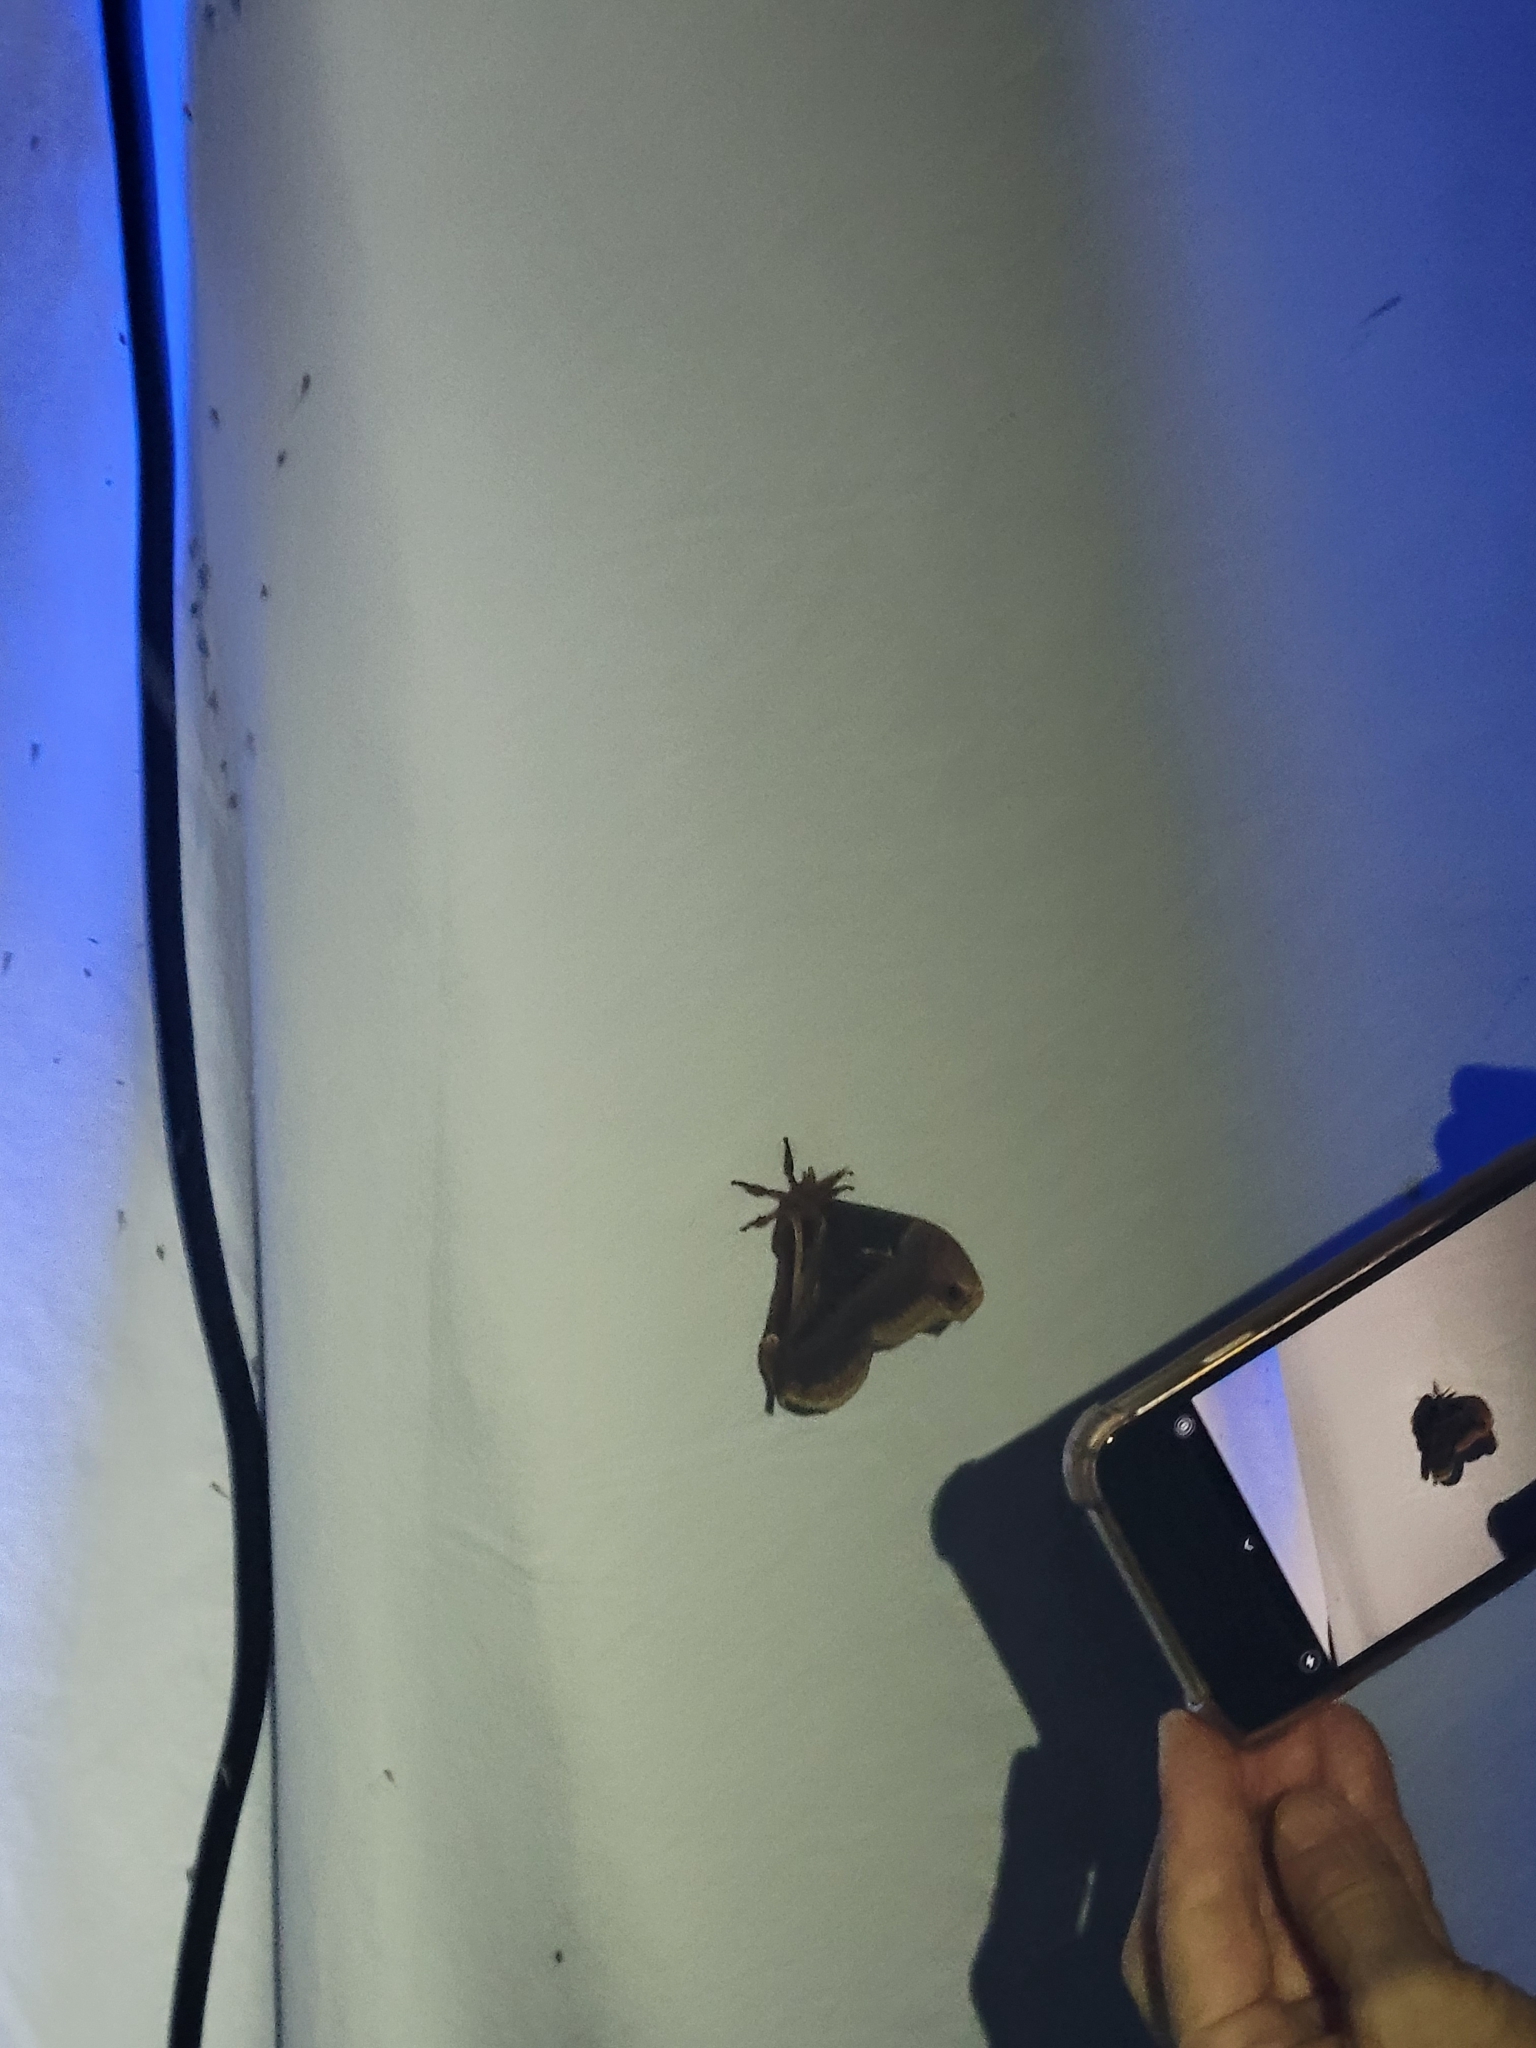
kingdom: Animalia
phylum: Arthropoda
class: Insecta
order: Lepidoptera
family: Saturniidae
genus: Callosamia
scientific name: Callosamia angulifera
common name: Tulip tree silkmoth
